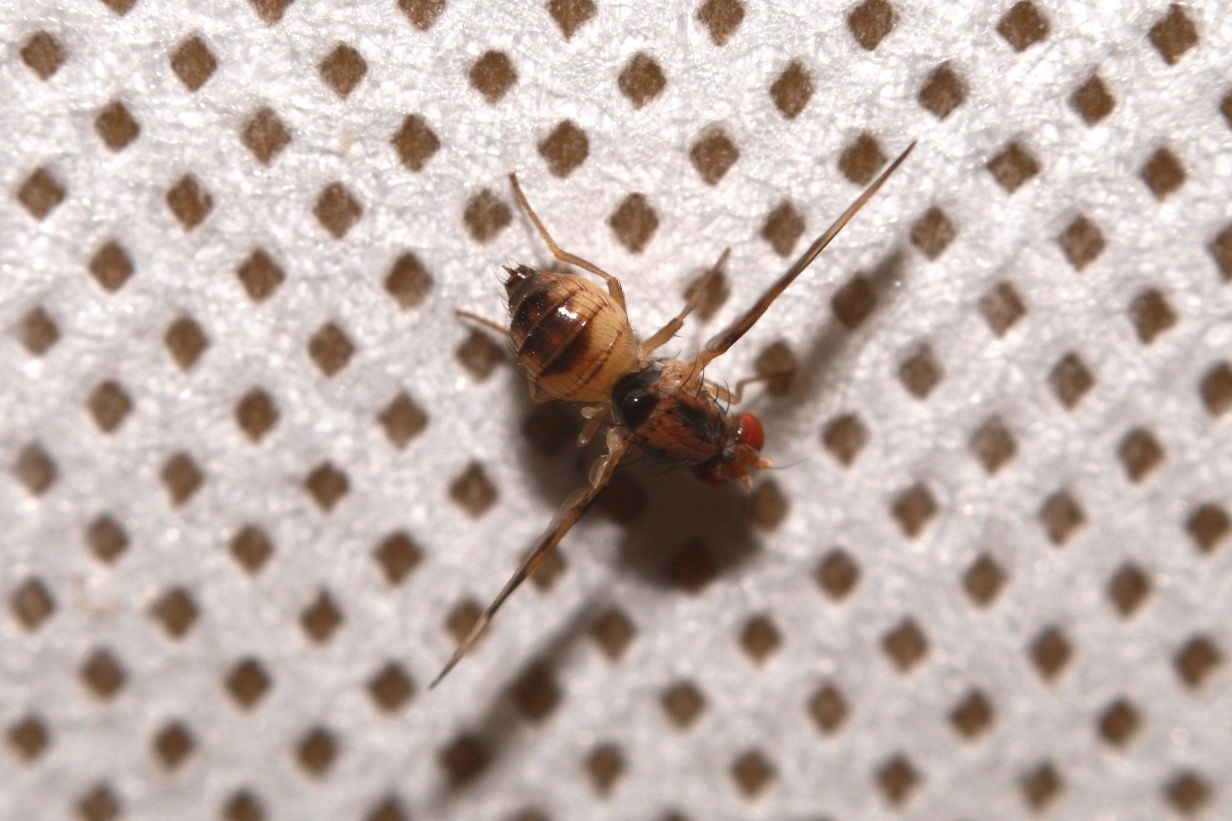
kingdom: Animalia
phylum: Arthropoda
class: Insecta
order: Diptera
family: Pallopteridae
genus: Toxonevra
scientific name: Toxonevra muliebris
